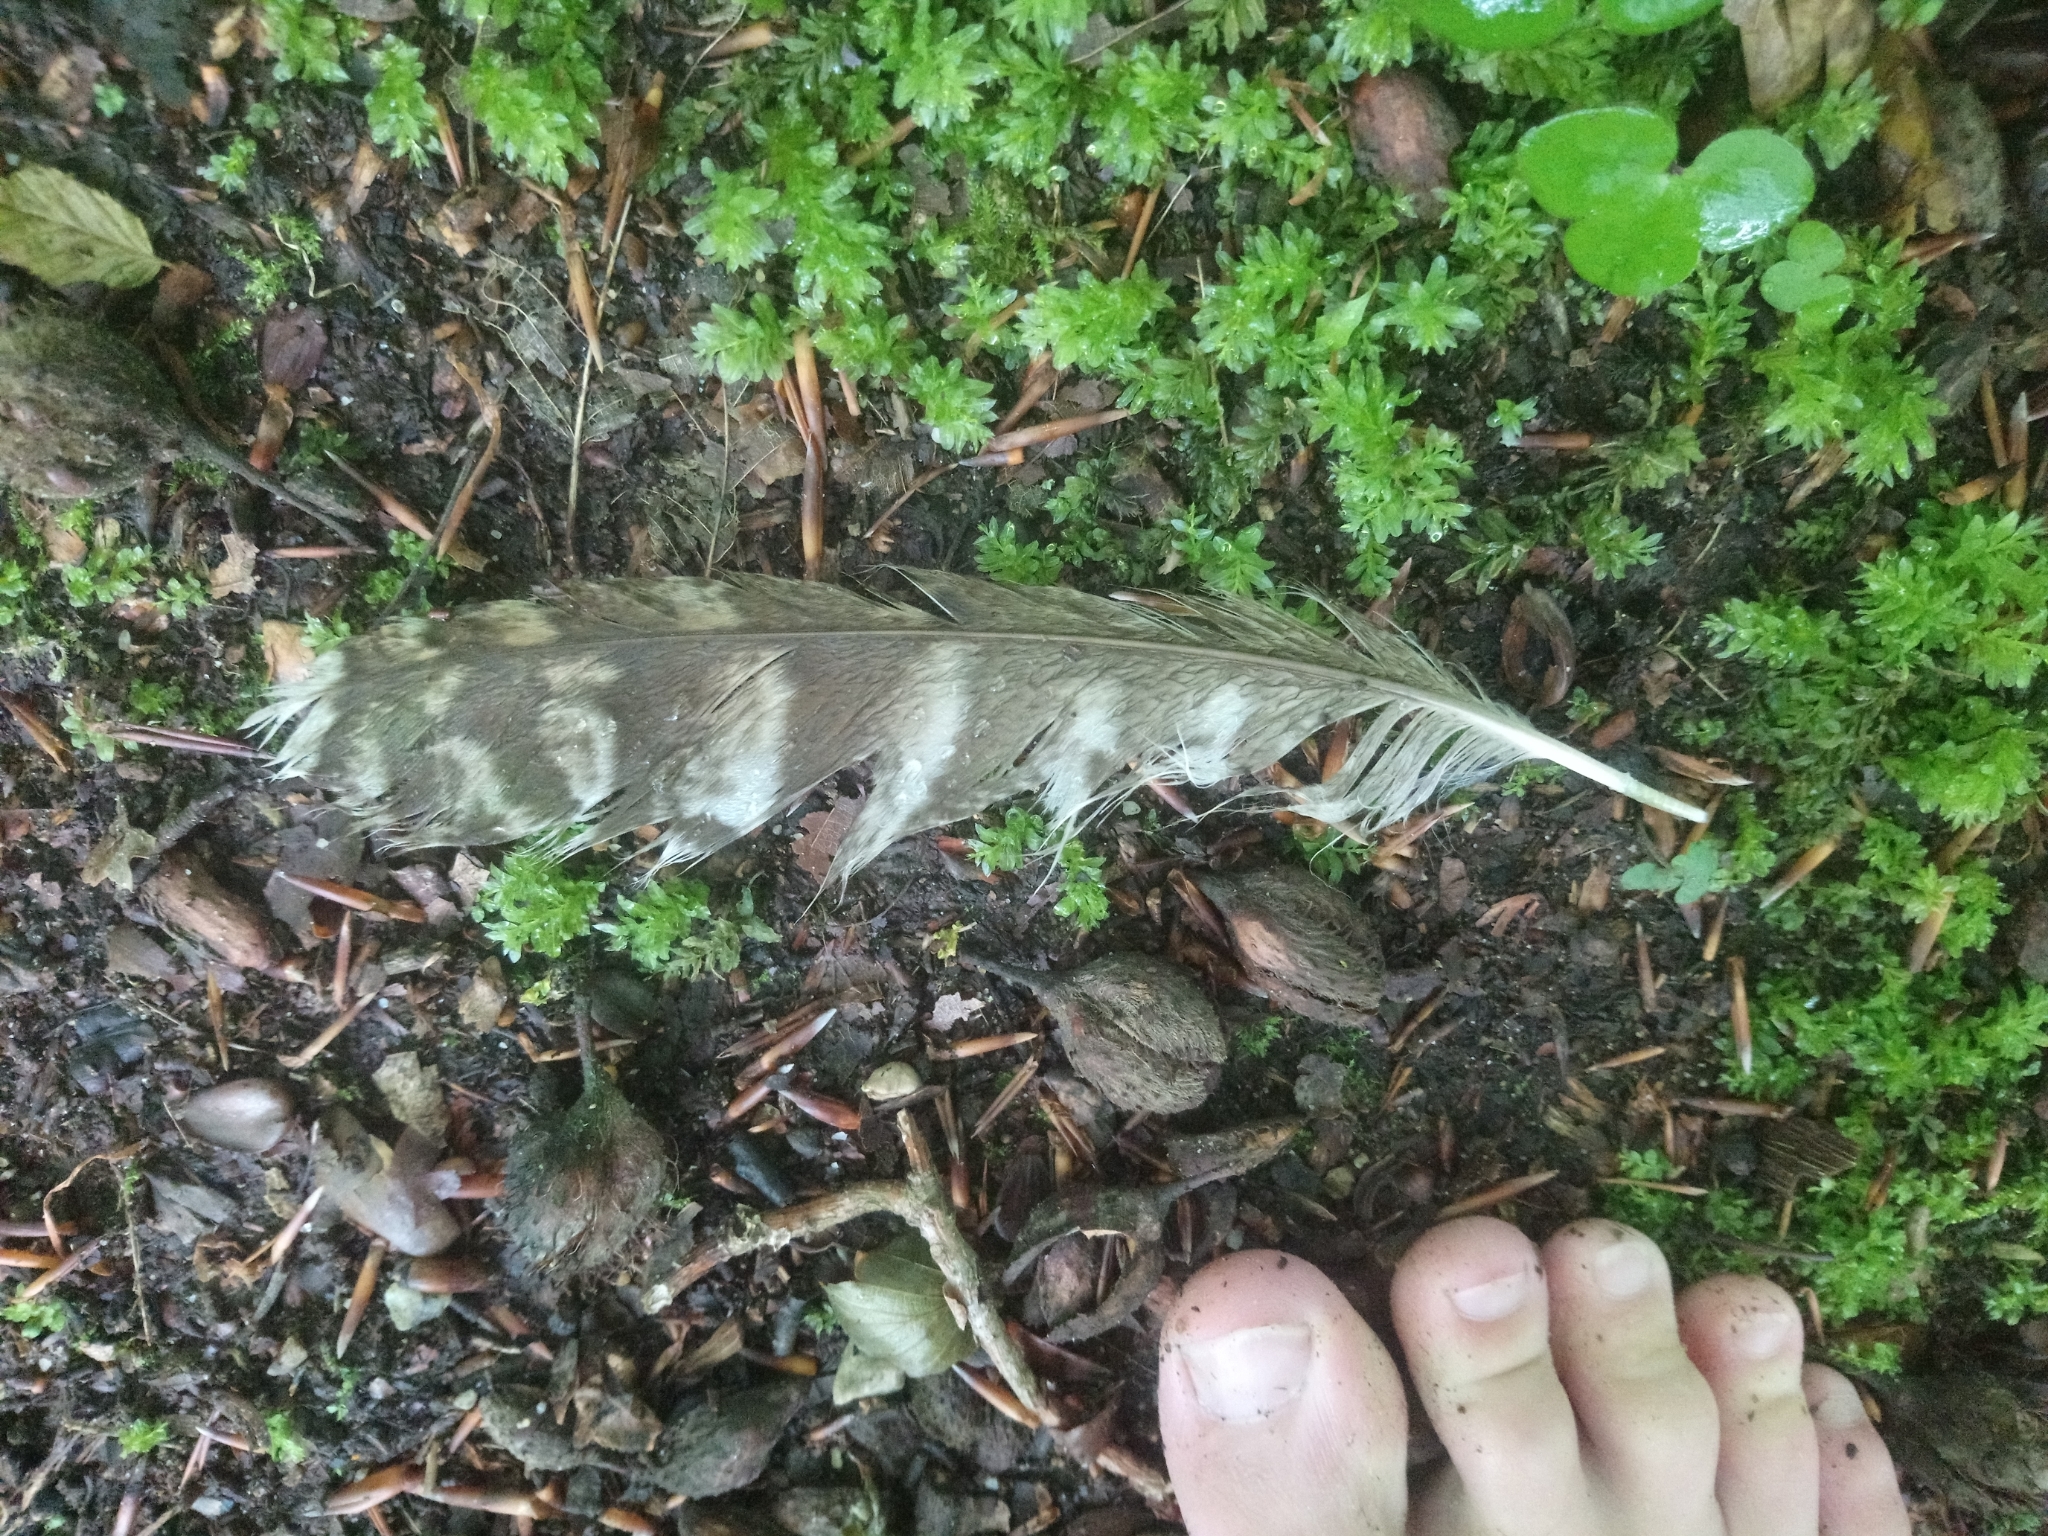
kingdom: Animalia
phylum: Chordata
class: Aves
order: Strigiformes
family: Strigidae
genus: Strix
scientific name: Strix aluco
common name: Tawny owl
